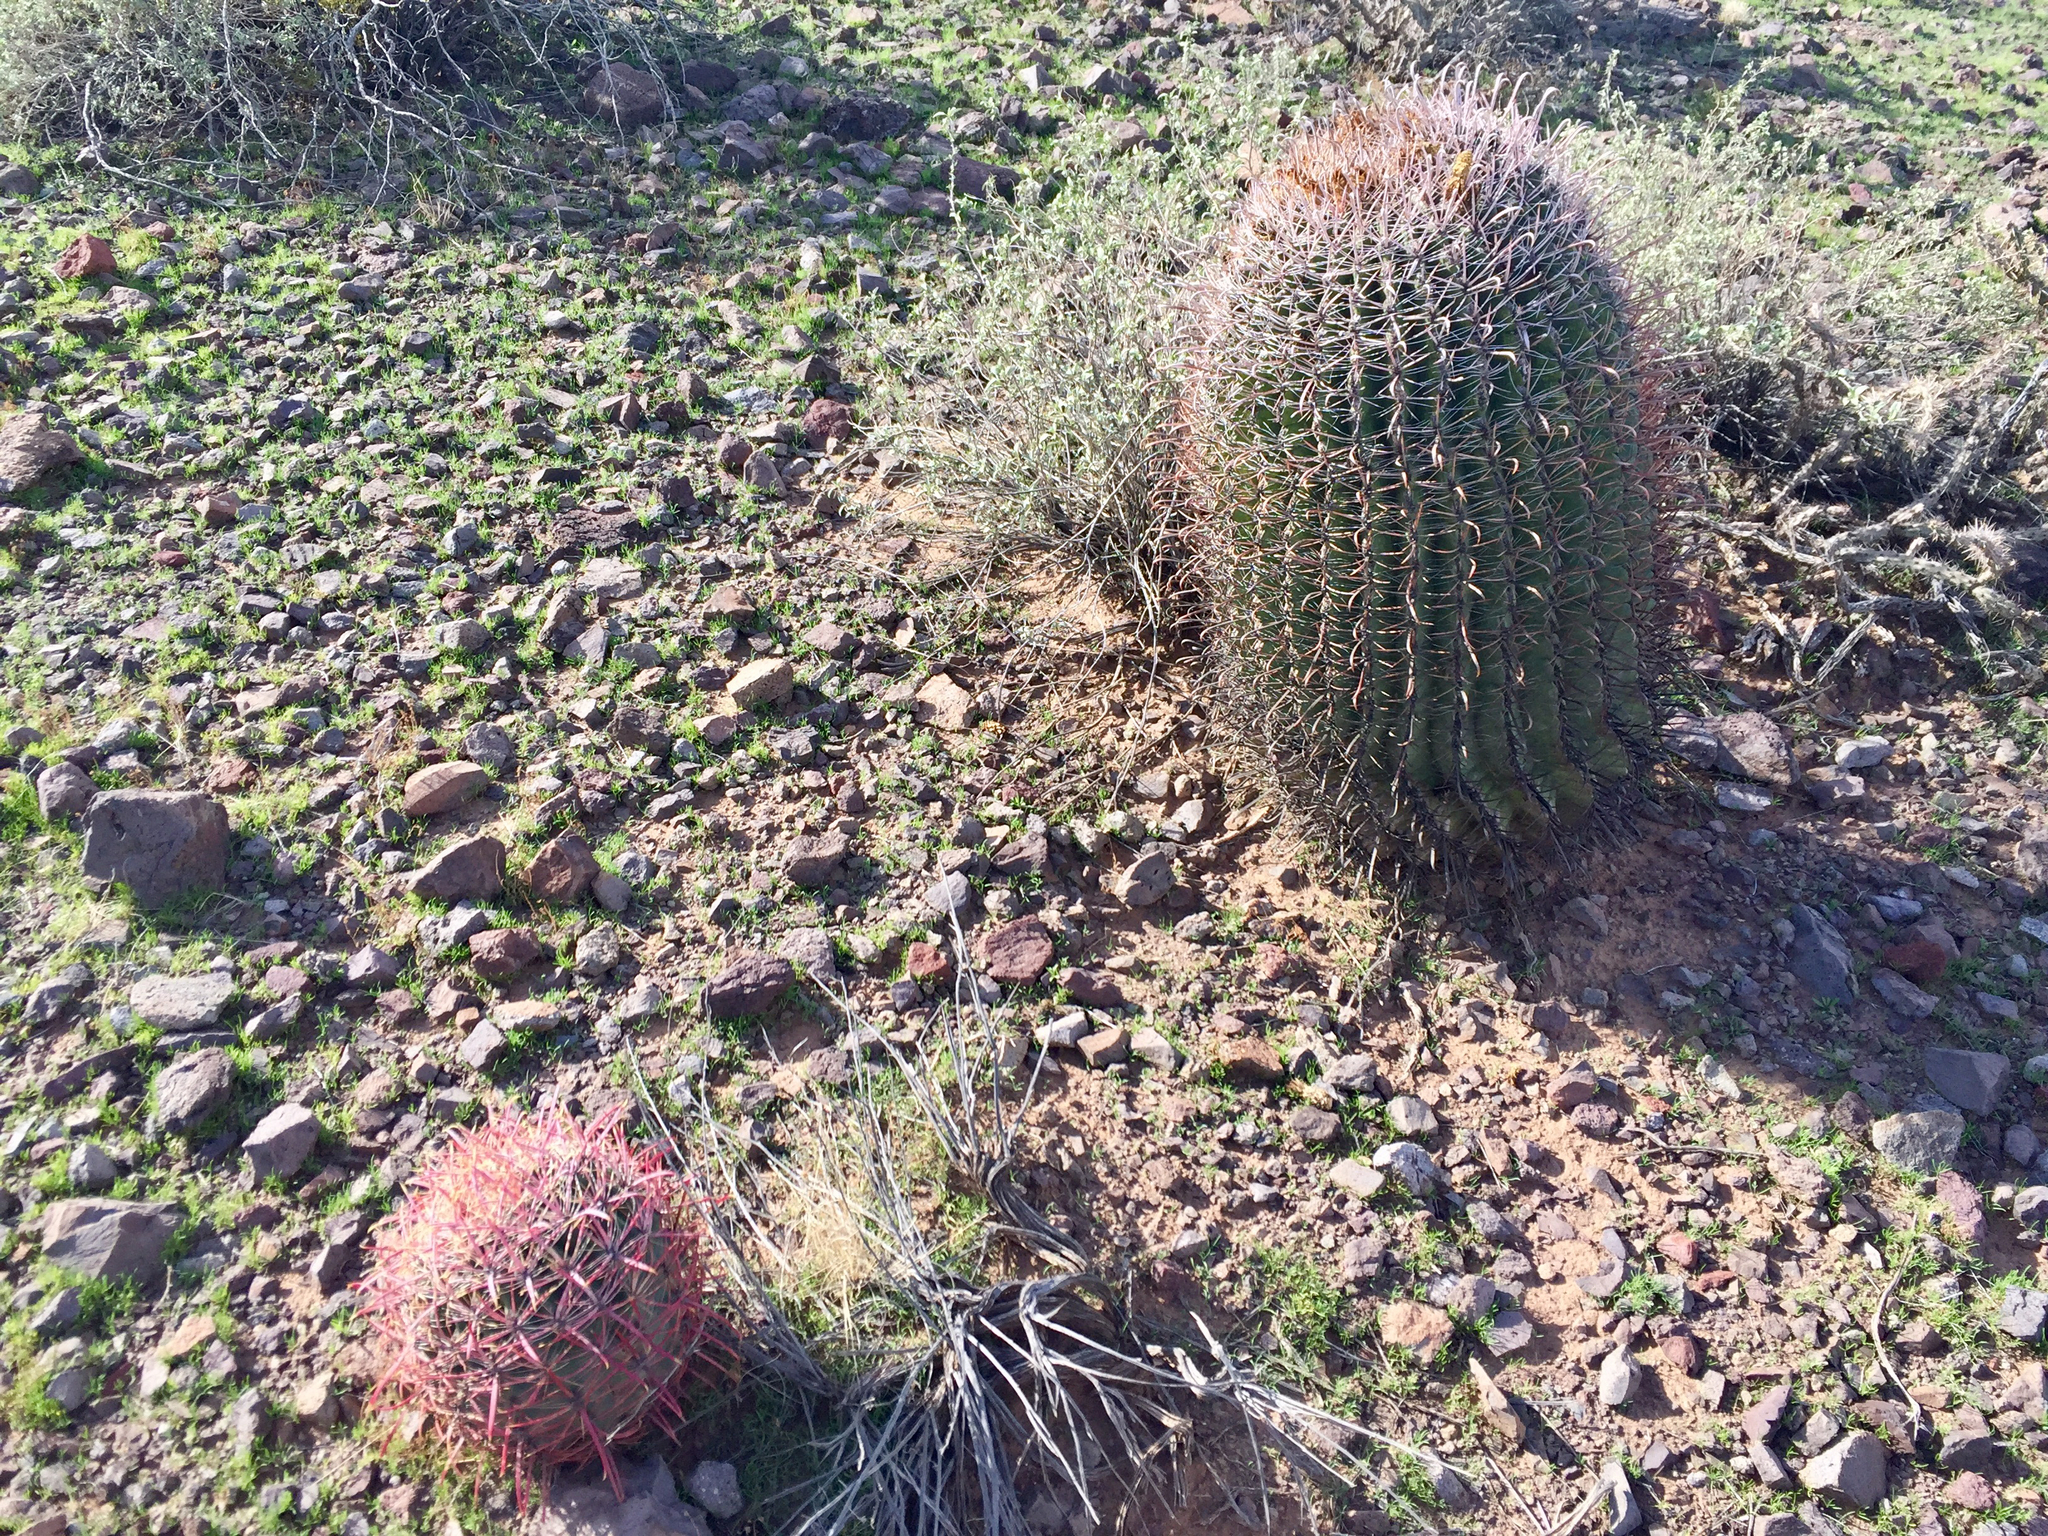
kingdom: Plantae
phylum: Tracheophyta
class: Magnoliopsida
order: Caryophyllales
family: Cactaceae
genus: Ferocactus
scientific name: Ferocactus cylindraceus
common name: California barrel cactus
